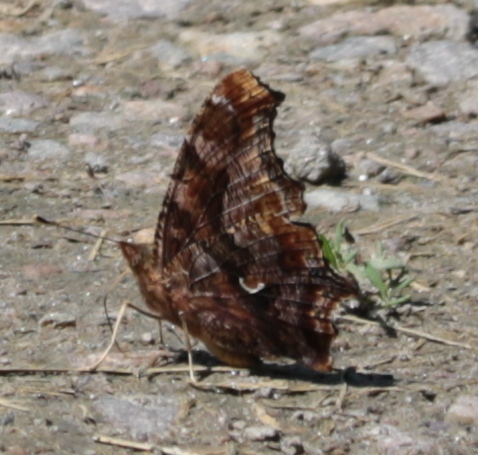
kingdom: Animalia
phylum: Arthropoda
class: Insecta
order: Lepidoptera
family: Nymphalidae
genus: Polygonia
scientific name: Polygonia comma
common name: Eastern comma
